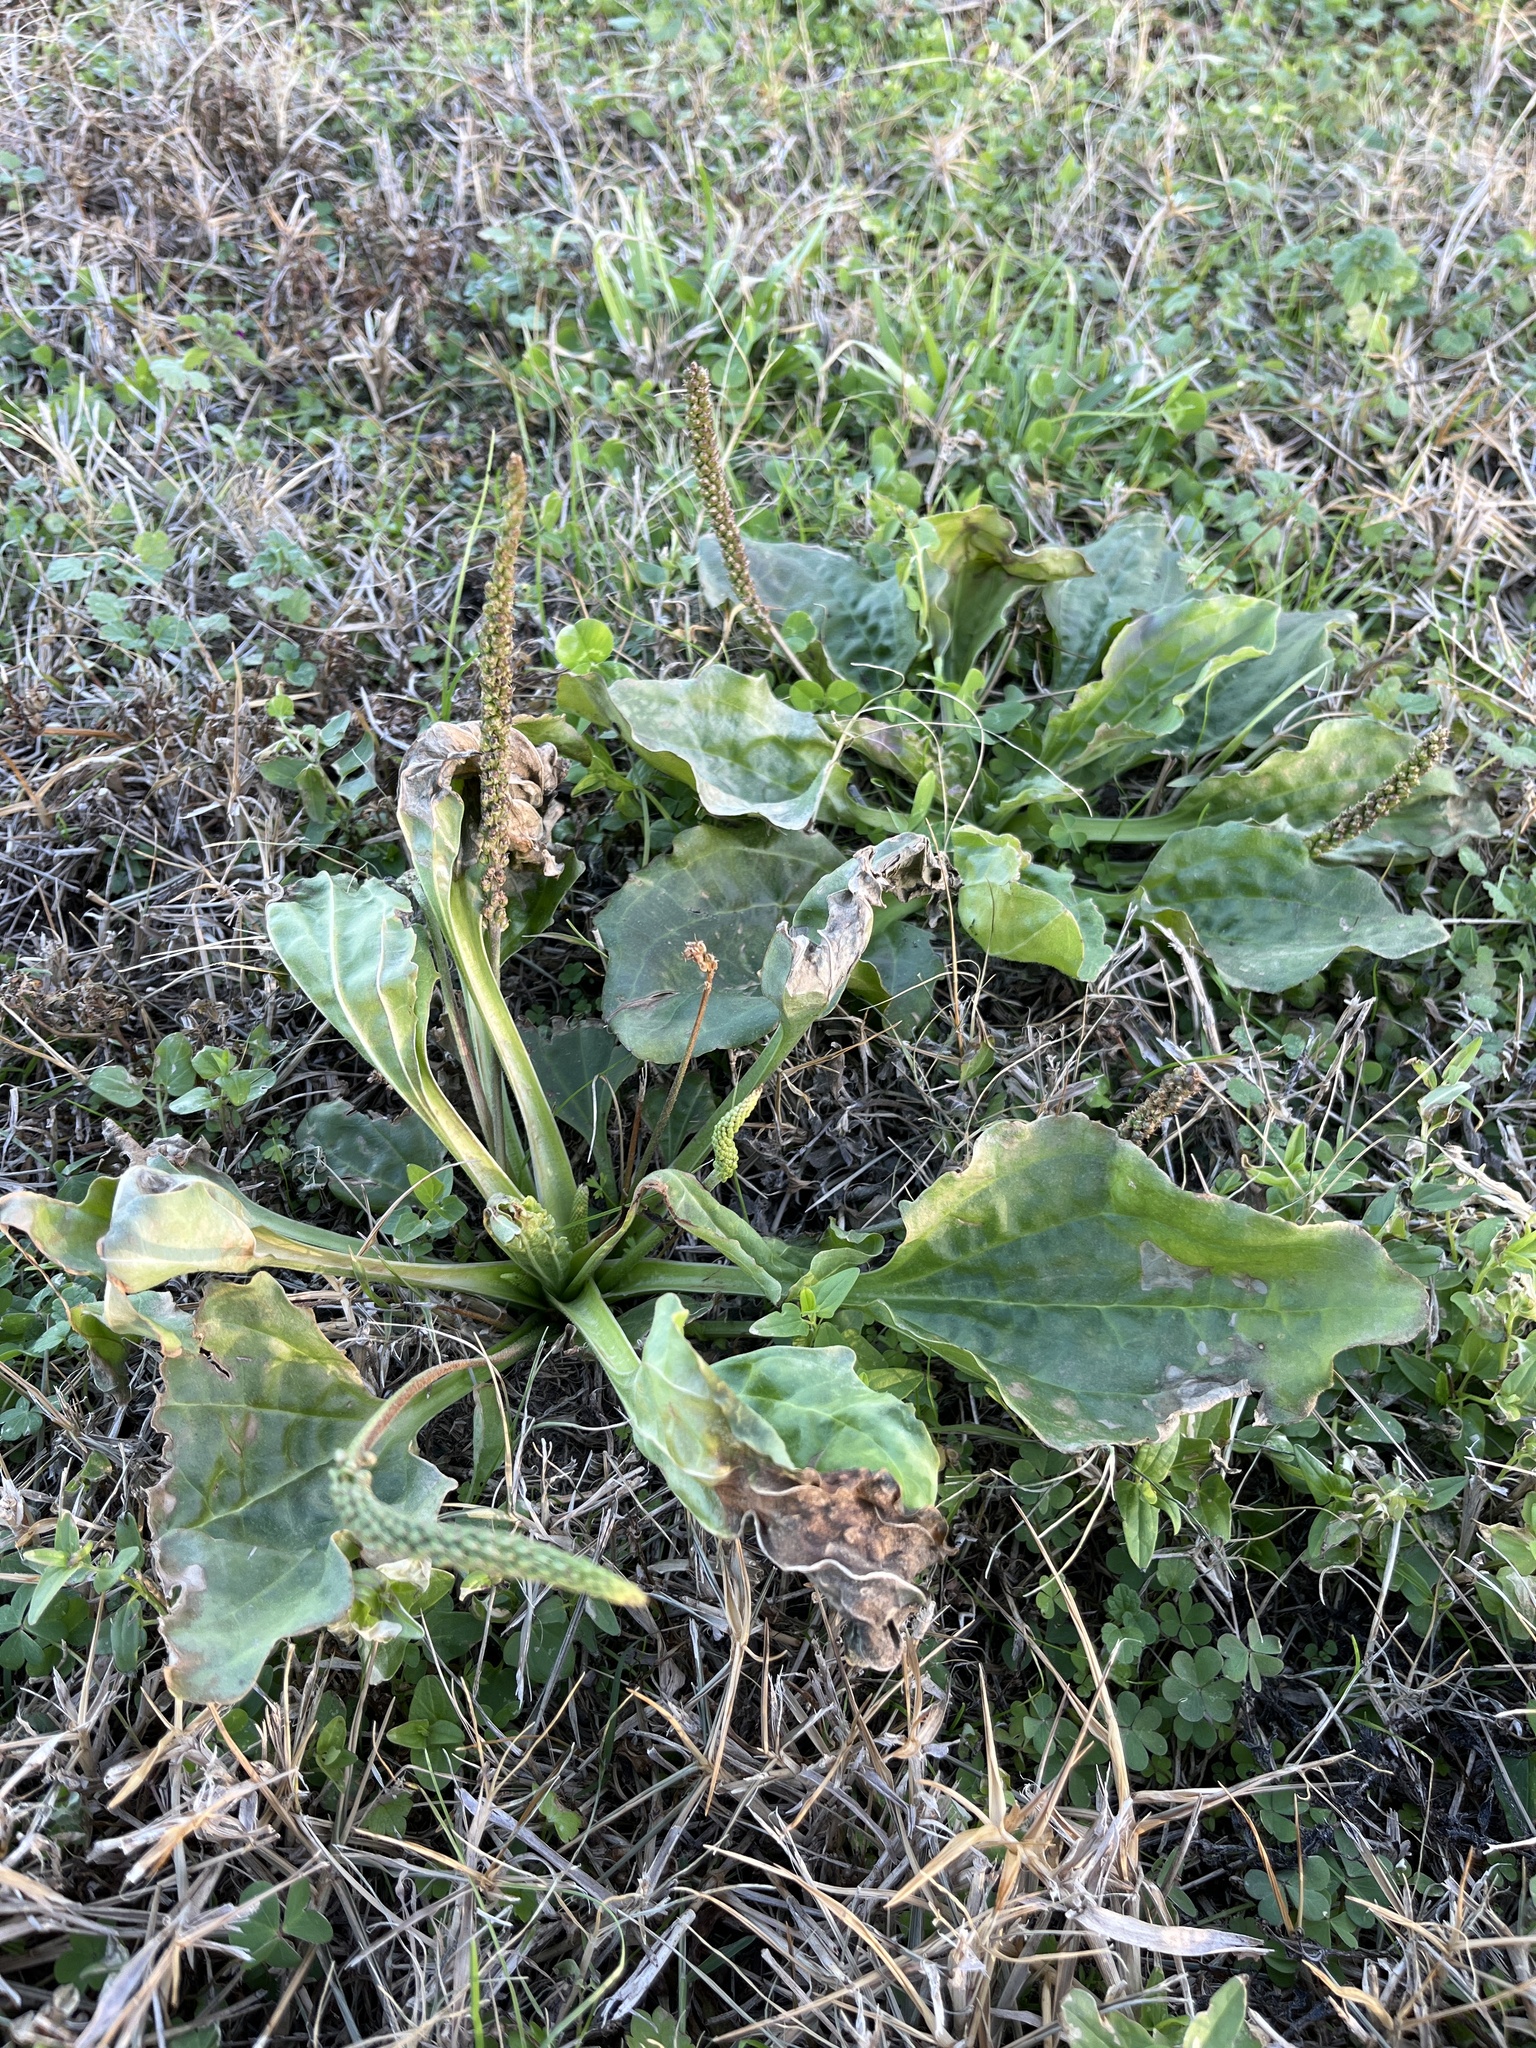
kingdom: Plantae
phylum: Tracheophyta
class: Magnoliopsida
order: Lamiales
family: Plantaginaceae
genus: Plantago
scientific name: Plantago major
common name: Common plantain
